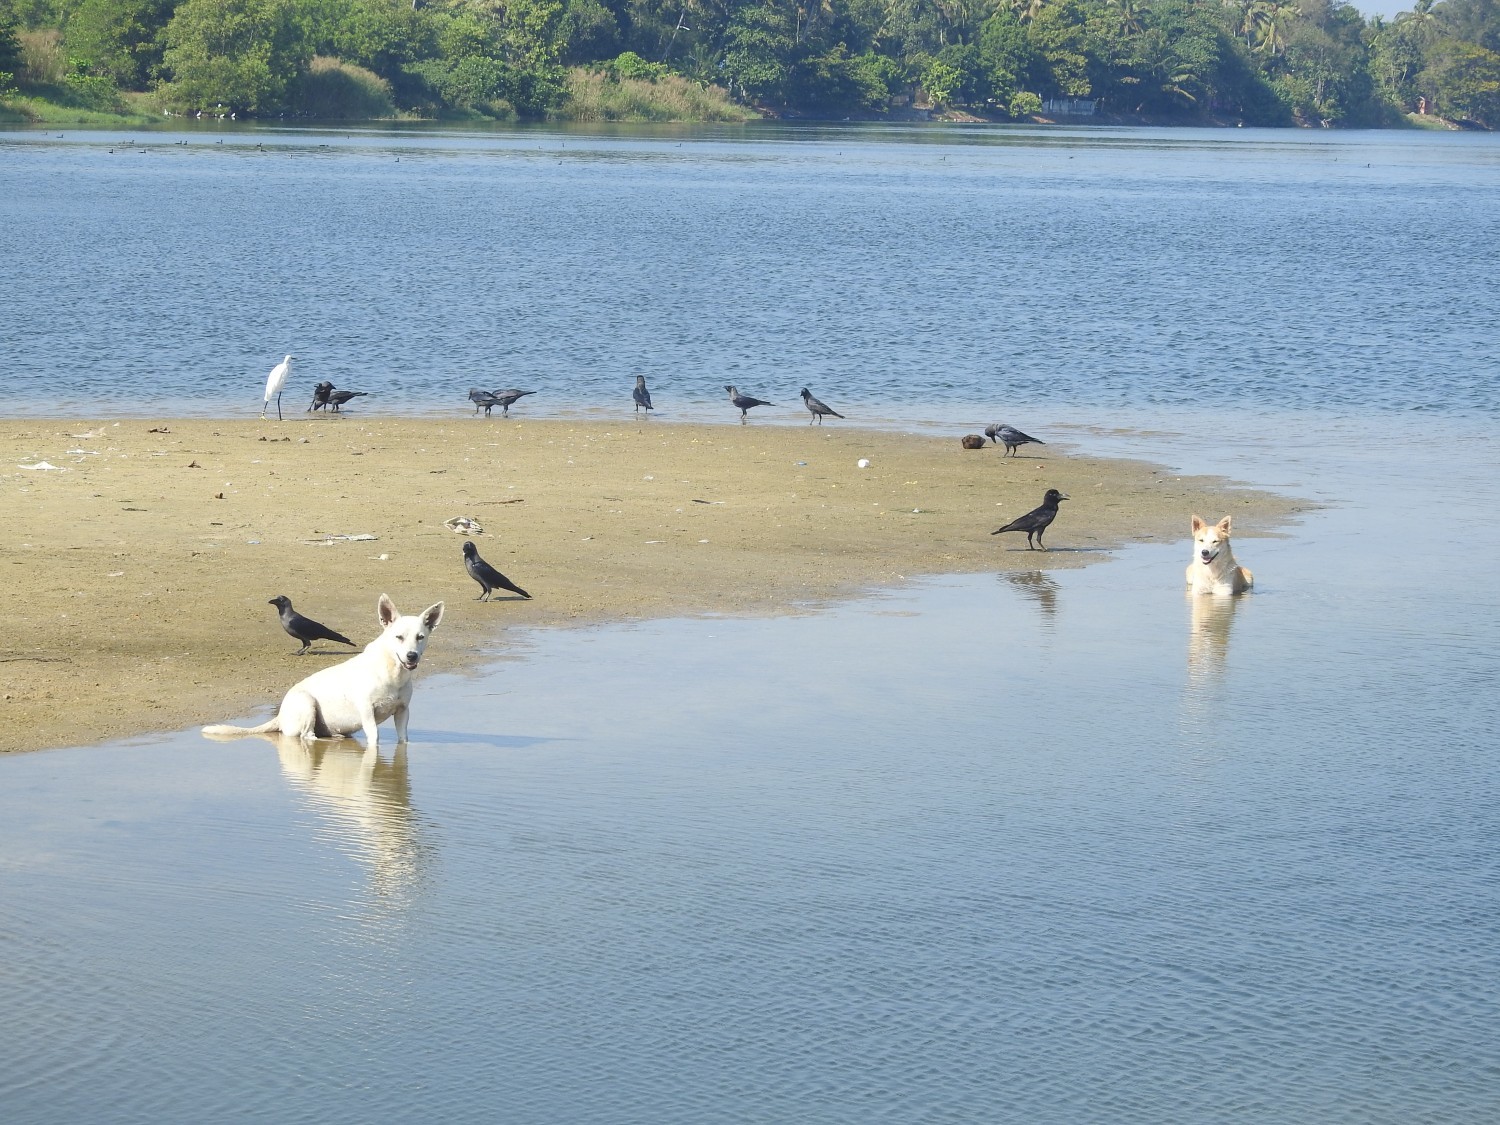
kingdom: Animalia
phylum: Chordata
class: Aves
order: Passeriformes
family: Corvidae
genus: Corvus
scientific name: Corvus splendens
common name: House crow
